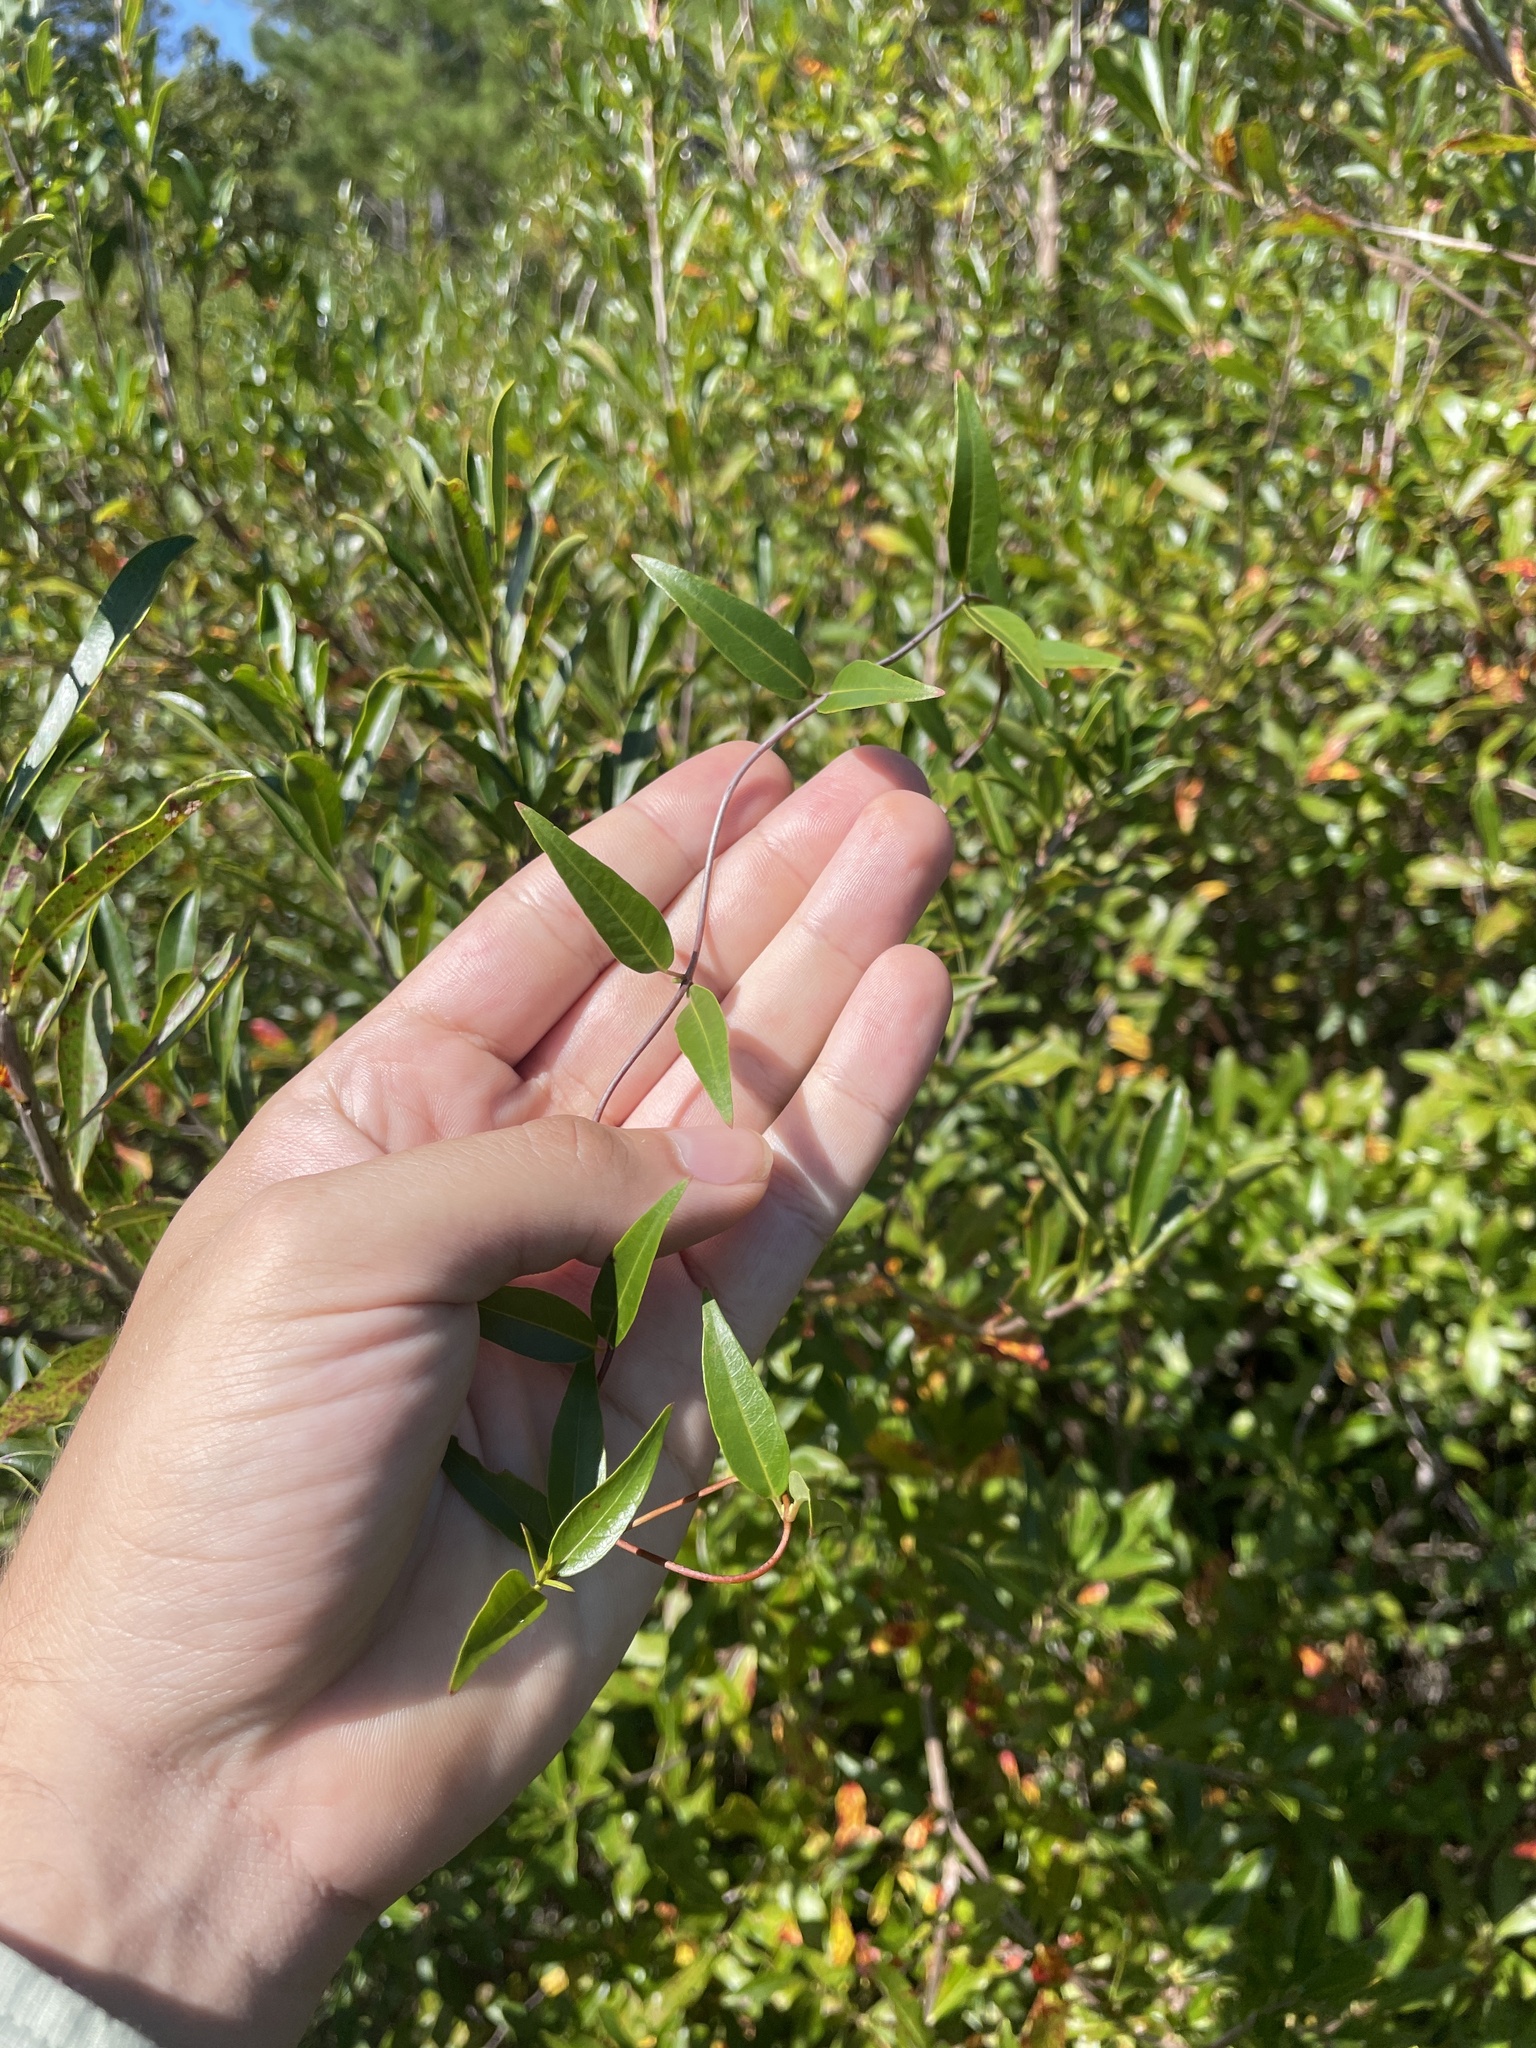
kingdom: Plantae
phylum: Tracheophyta
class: Magnoliopsida
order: Gentianales
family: Gelsemiaceae
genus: Gelsemium
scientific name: Gelsemium sempervirens
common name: Carolina-jasmine
